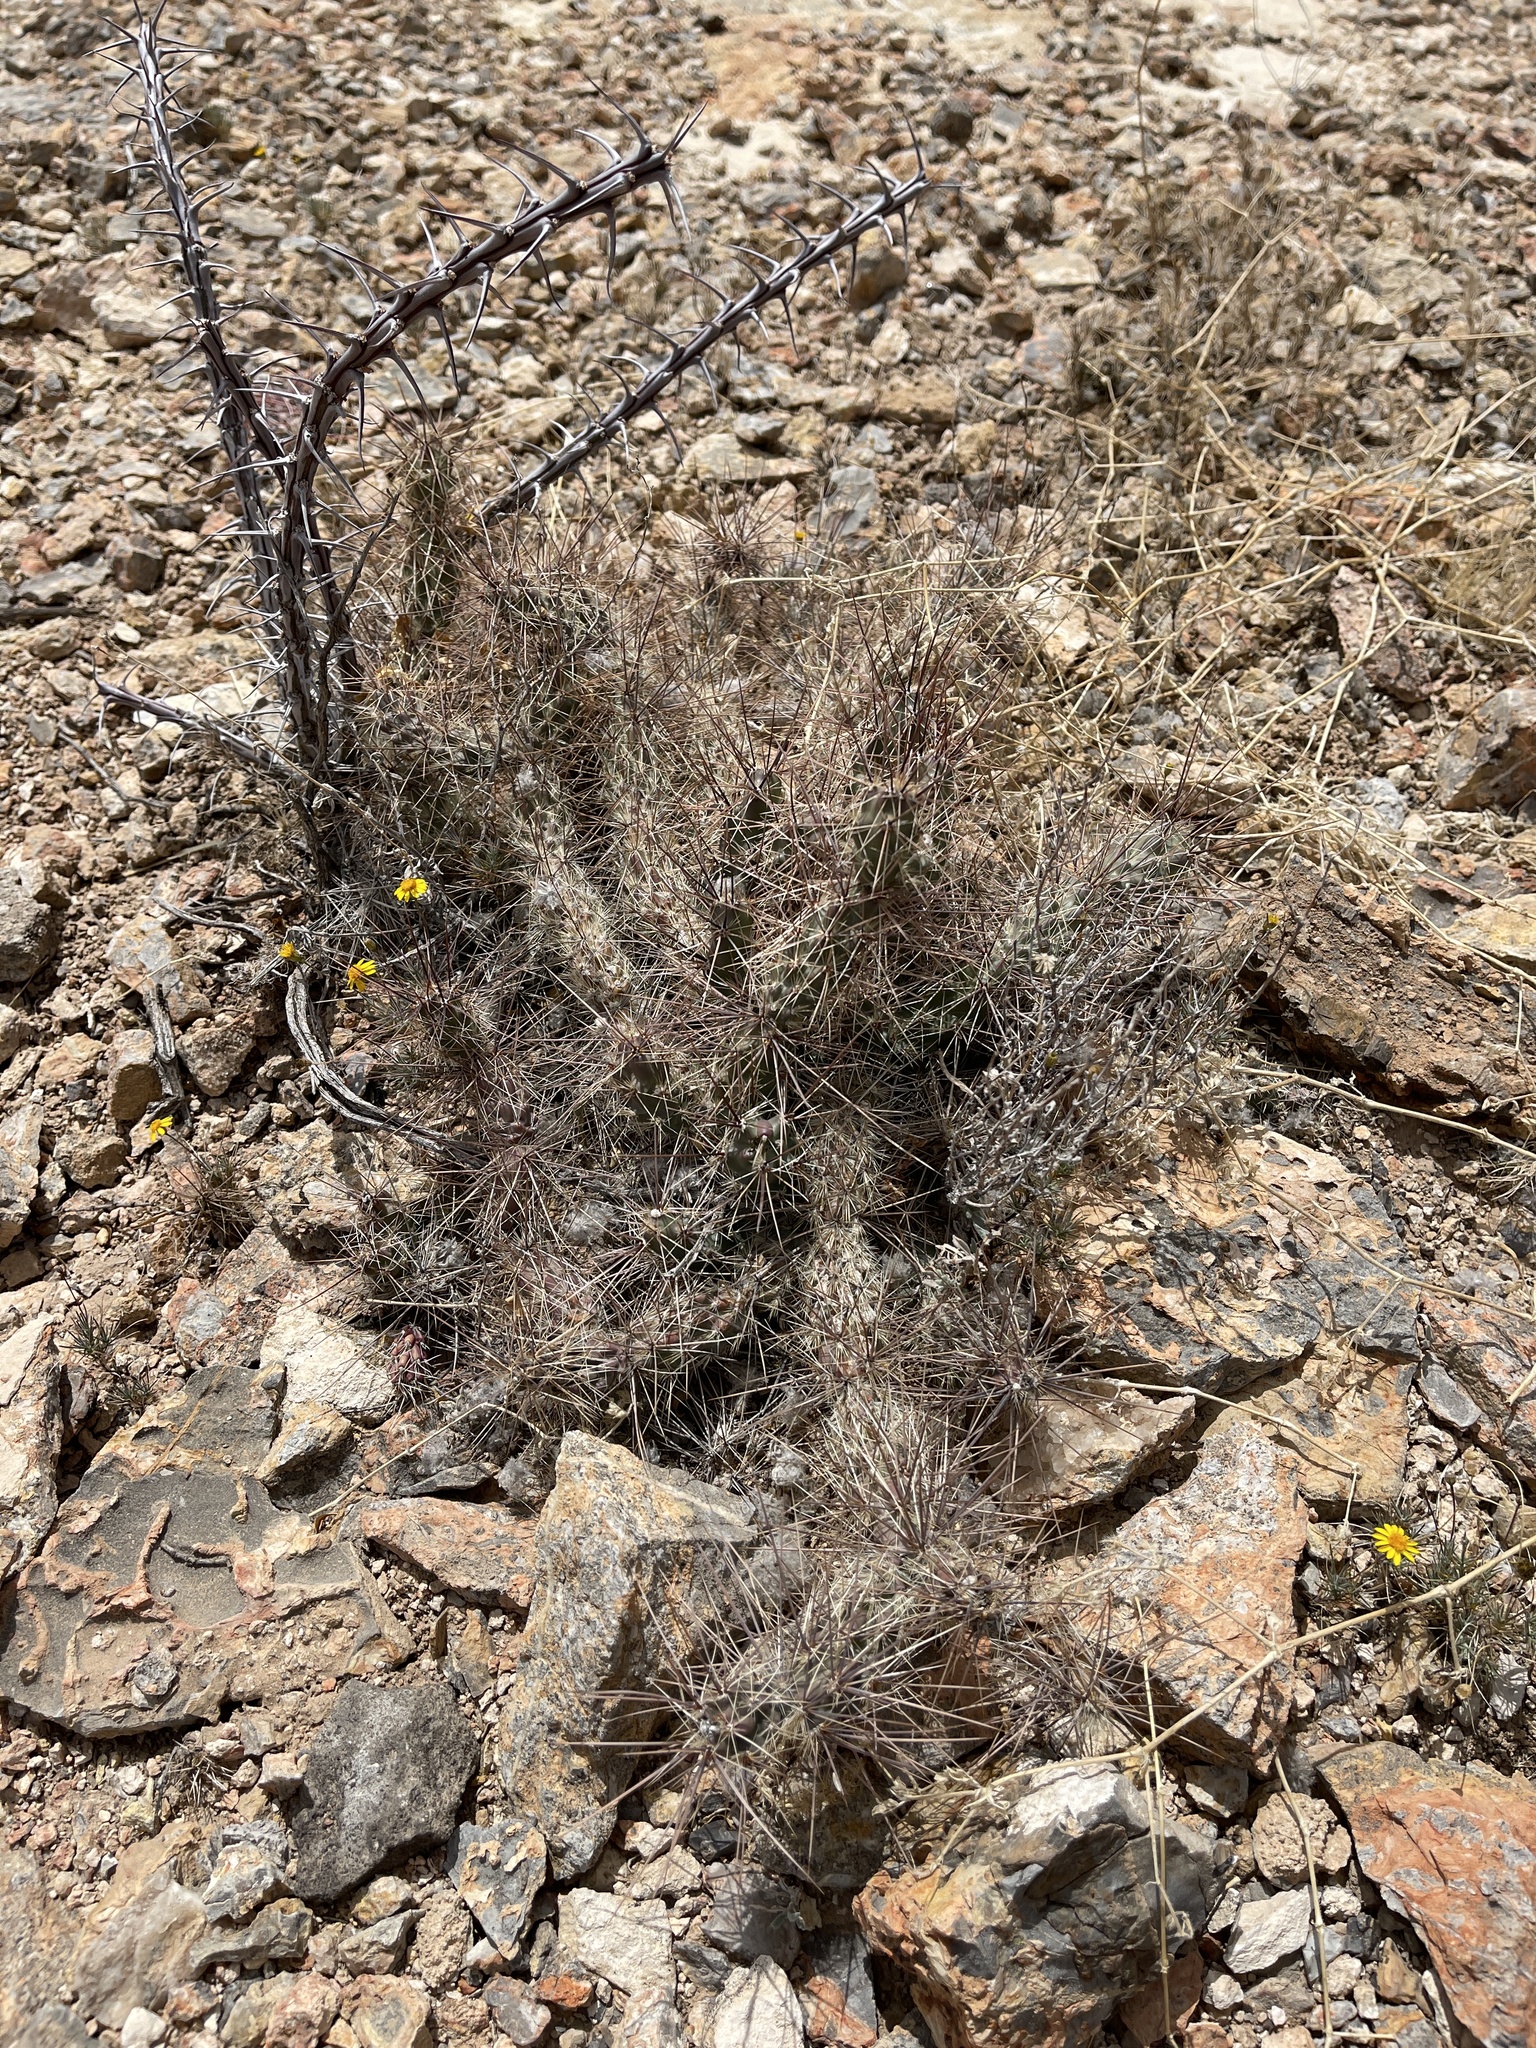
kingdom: Plantae
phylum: Tracheophyta
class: Magnoliopsida
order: Caryophyllales
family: Cactaceae
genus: Grusonia
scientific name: Grusonia grahamii
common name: Graham's club cactus
